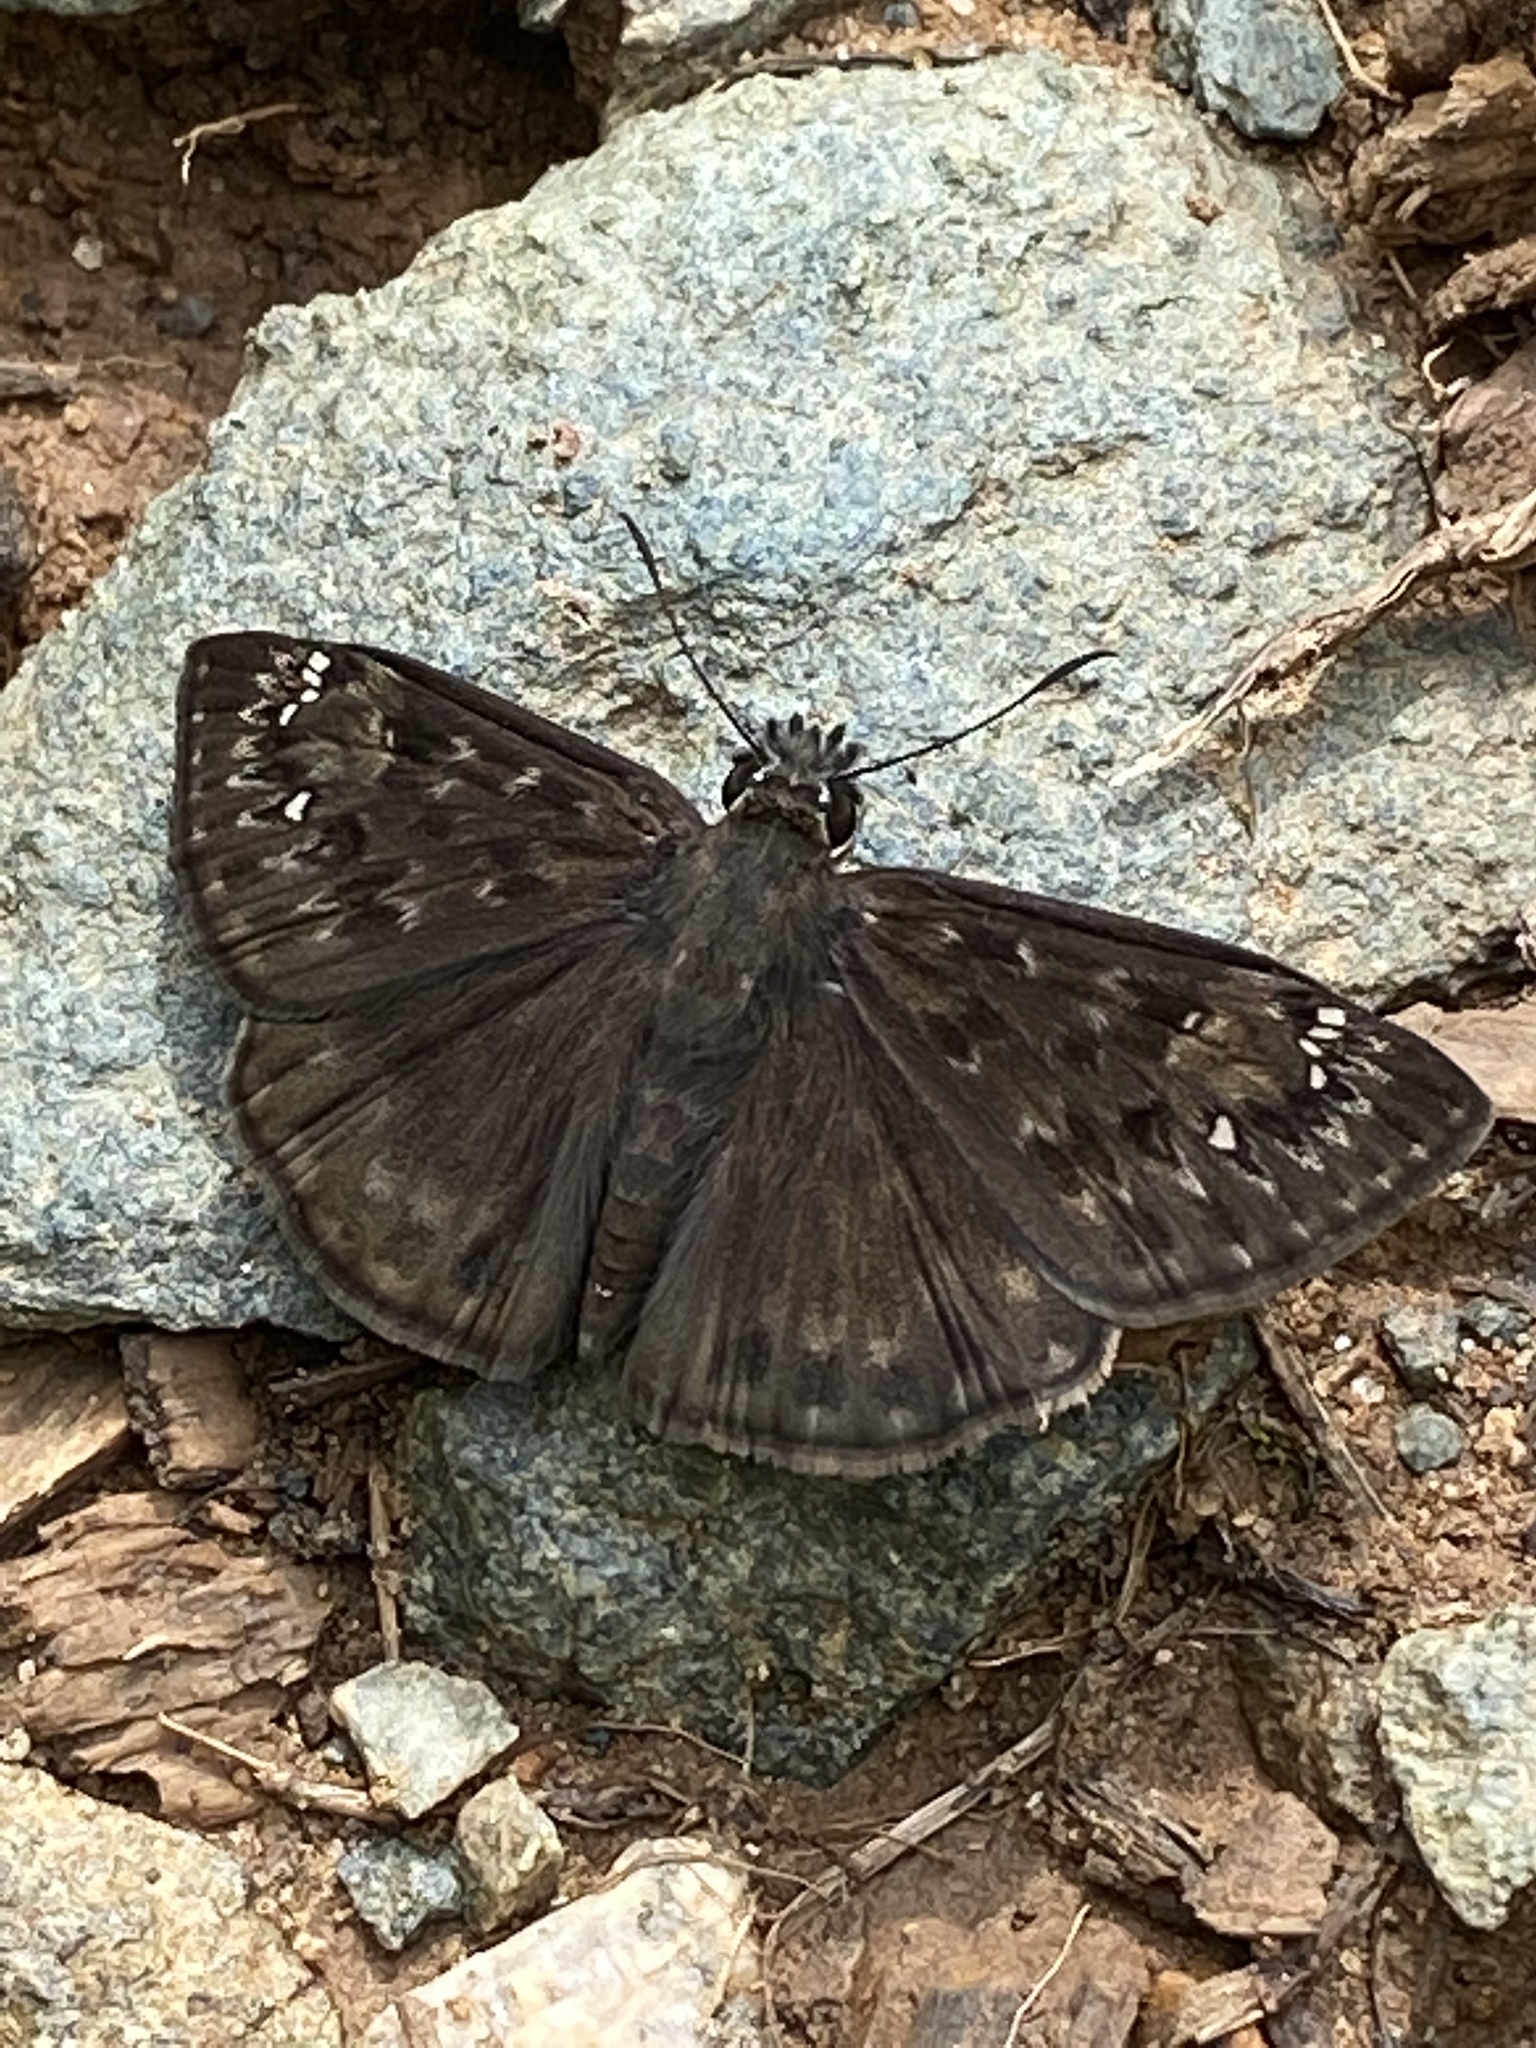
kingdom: Animalia
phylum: Arthropoda
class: Insecta
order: Lepidoptera
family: Hesperiidae
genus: Erynnis
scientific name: Erynnis horatius
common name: Horace's duskywing
